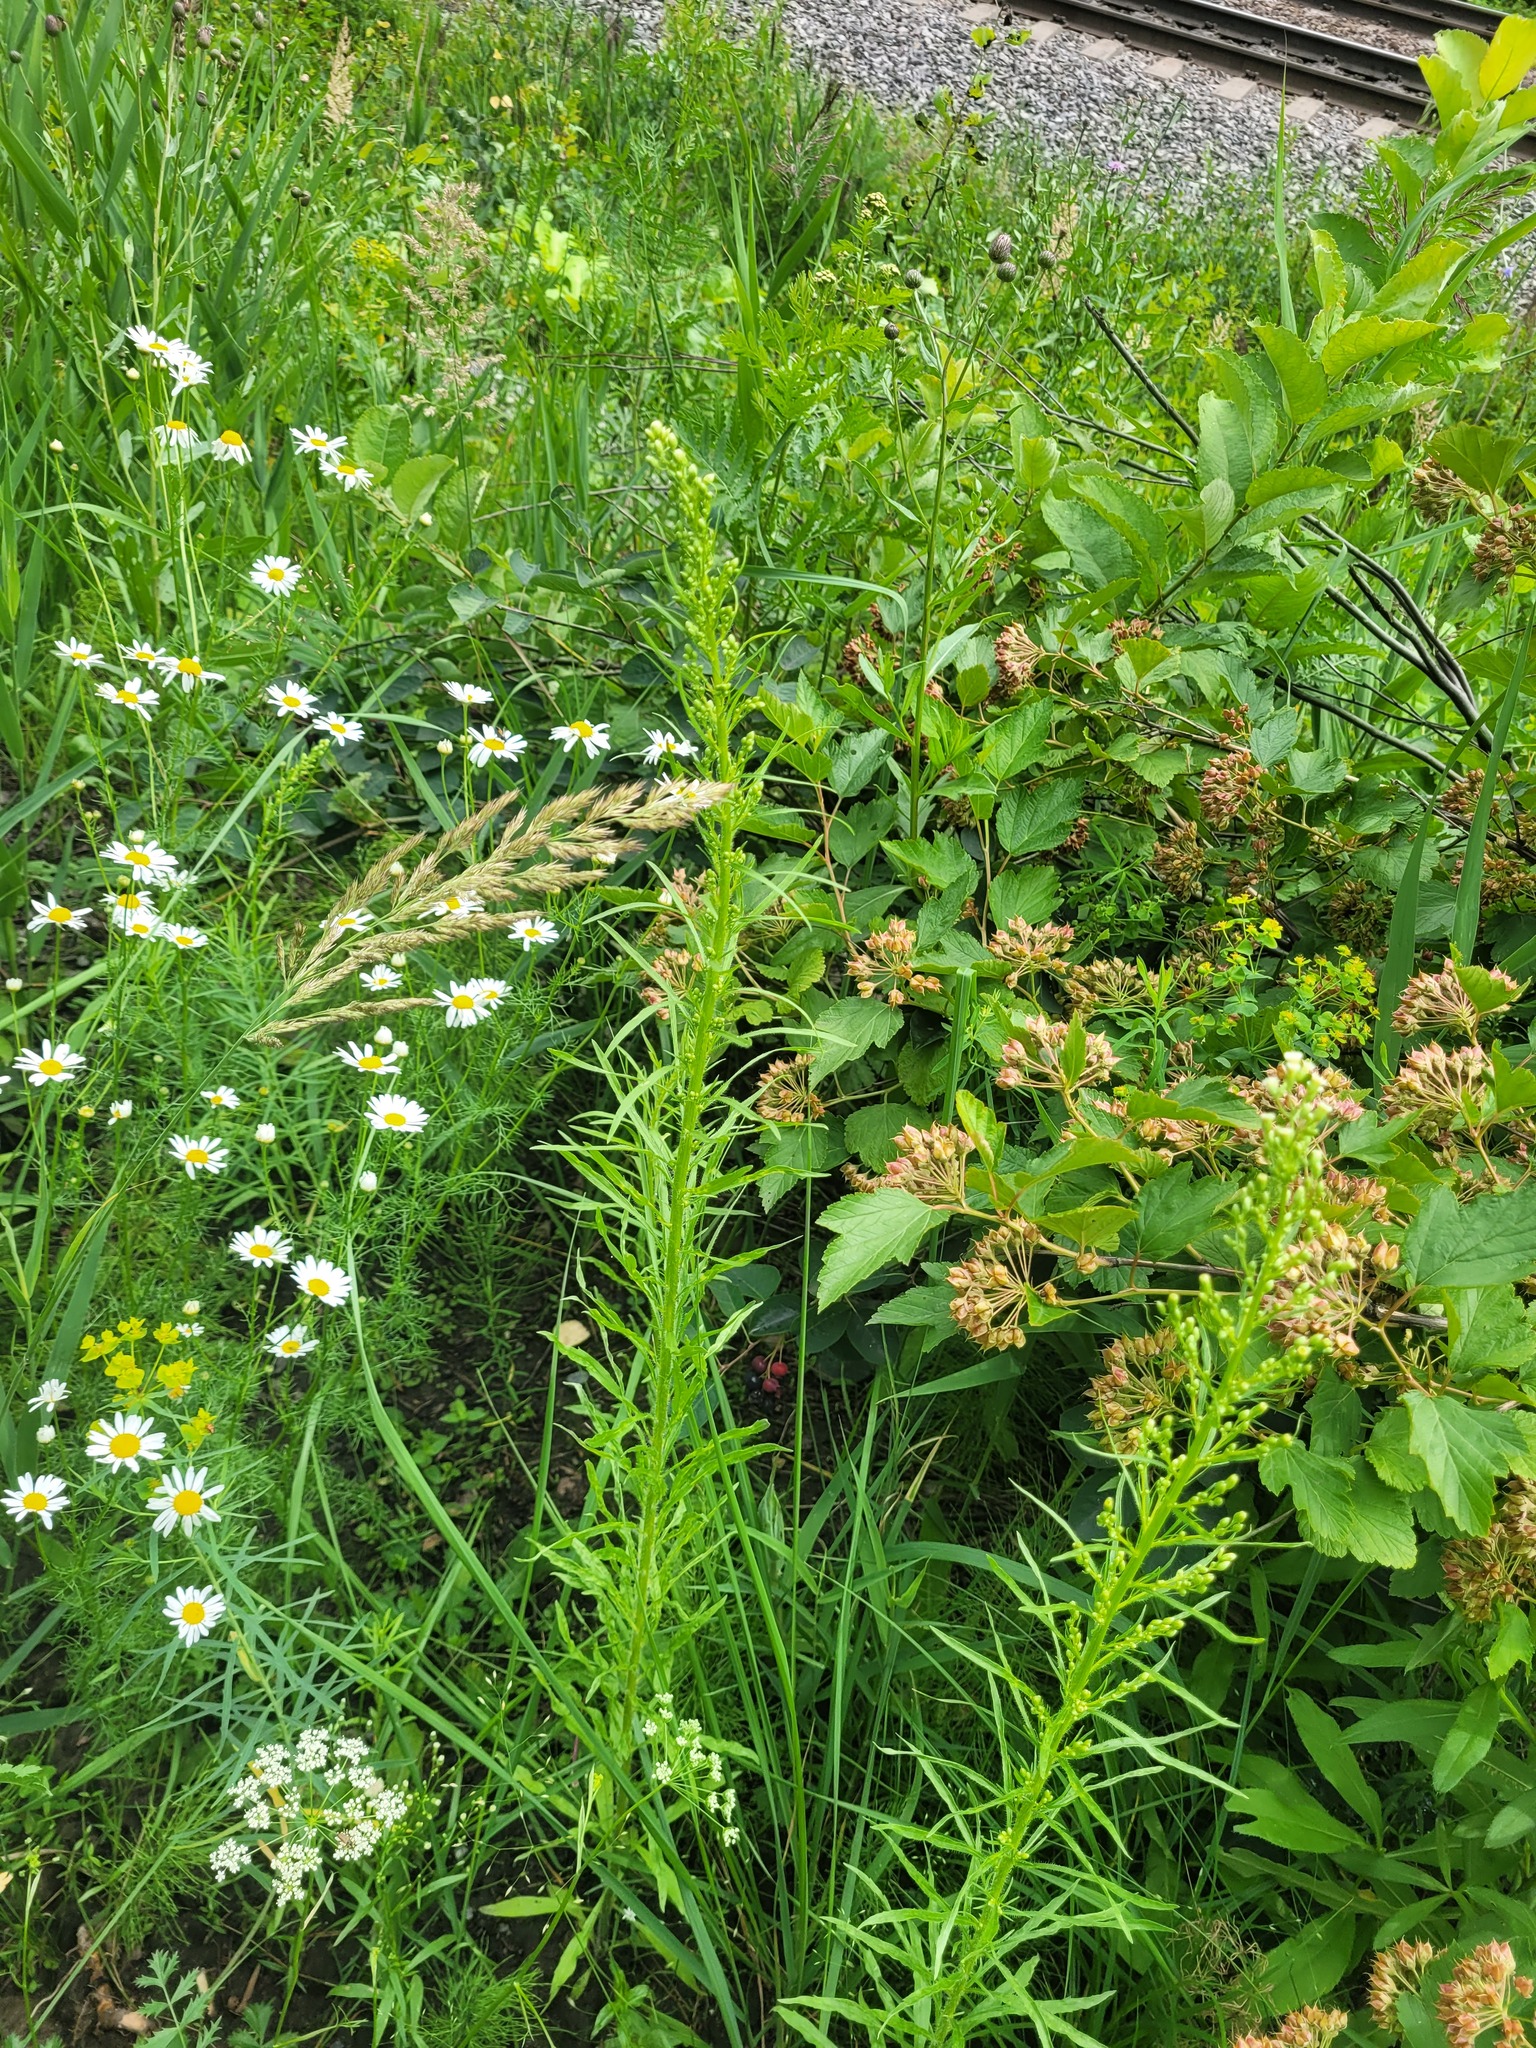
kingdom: Plantae
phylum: Tracheophyta
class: Magnoliopsida
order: Asterales
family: Asteraceae
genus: Erigeron
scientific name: Erigeron canadensis
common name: Canadian fleabane
